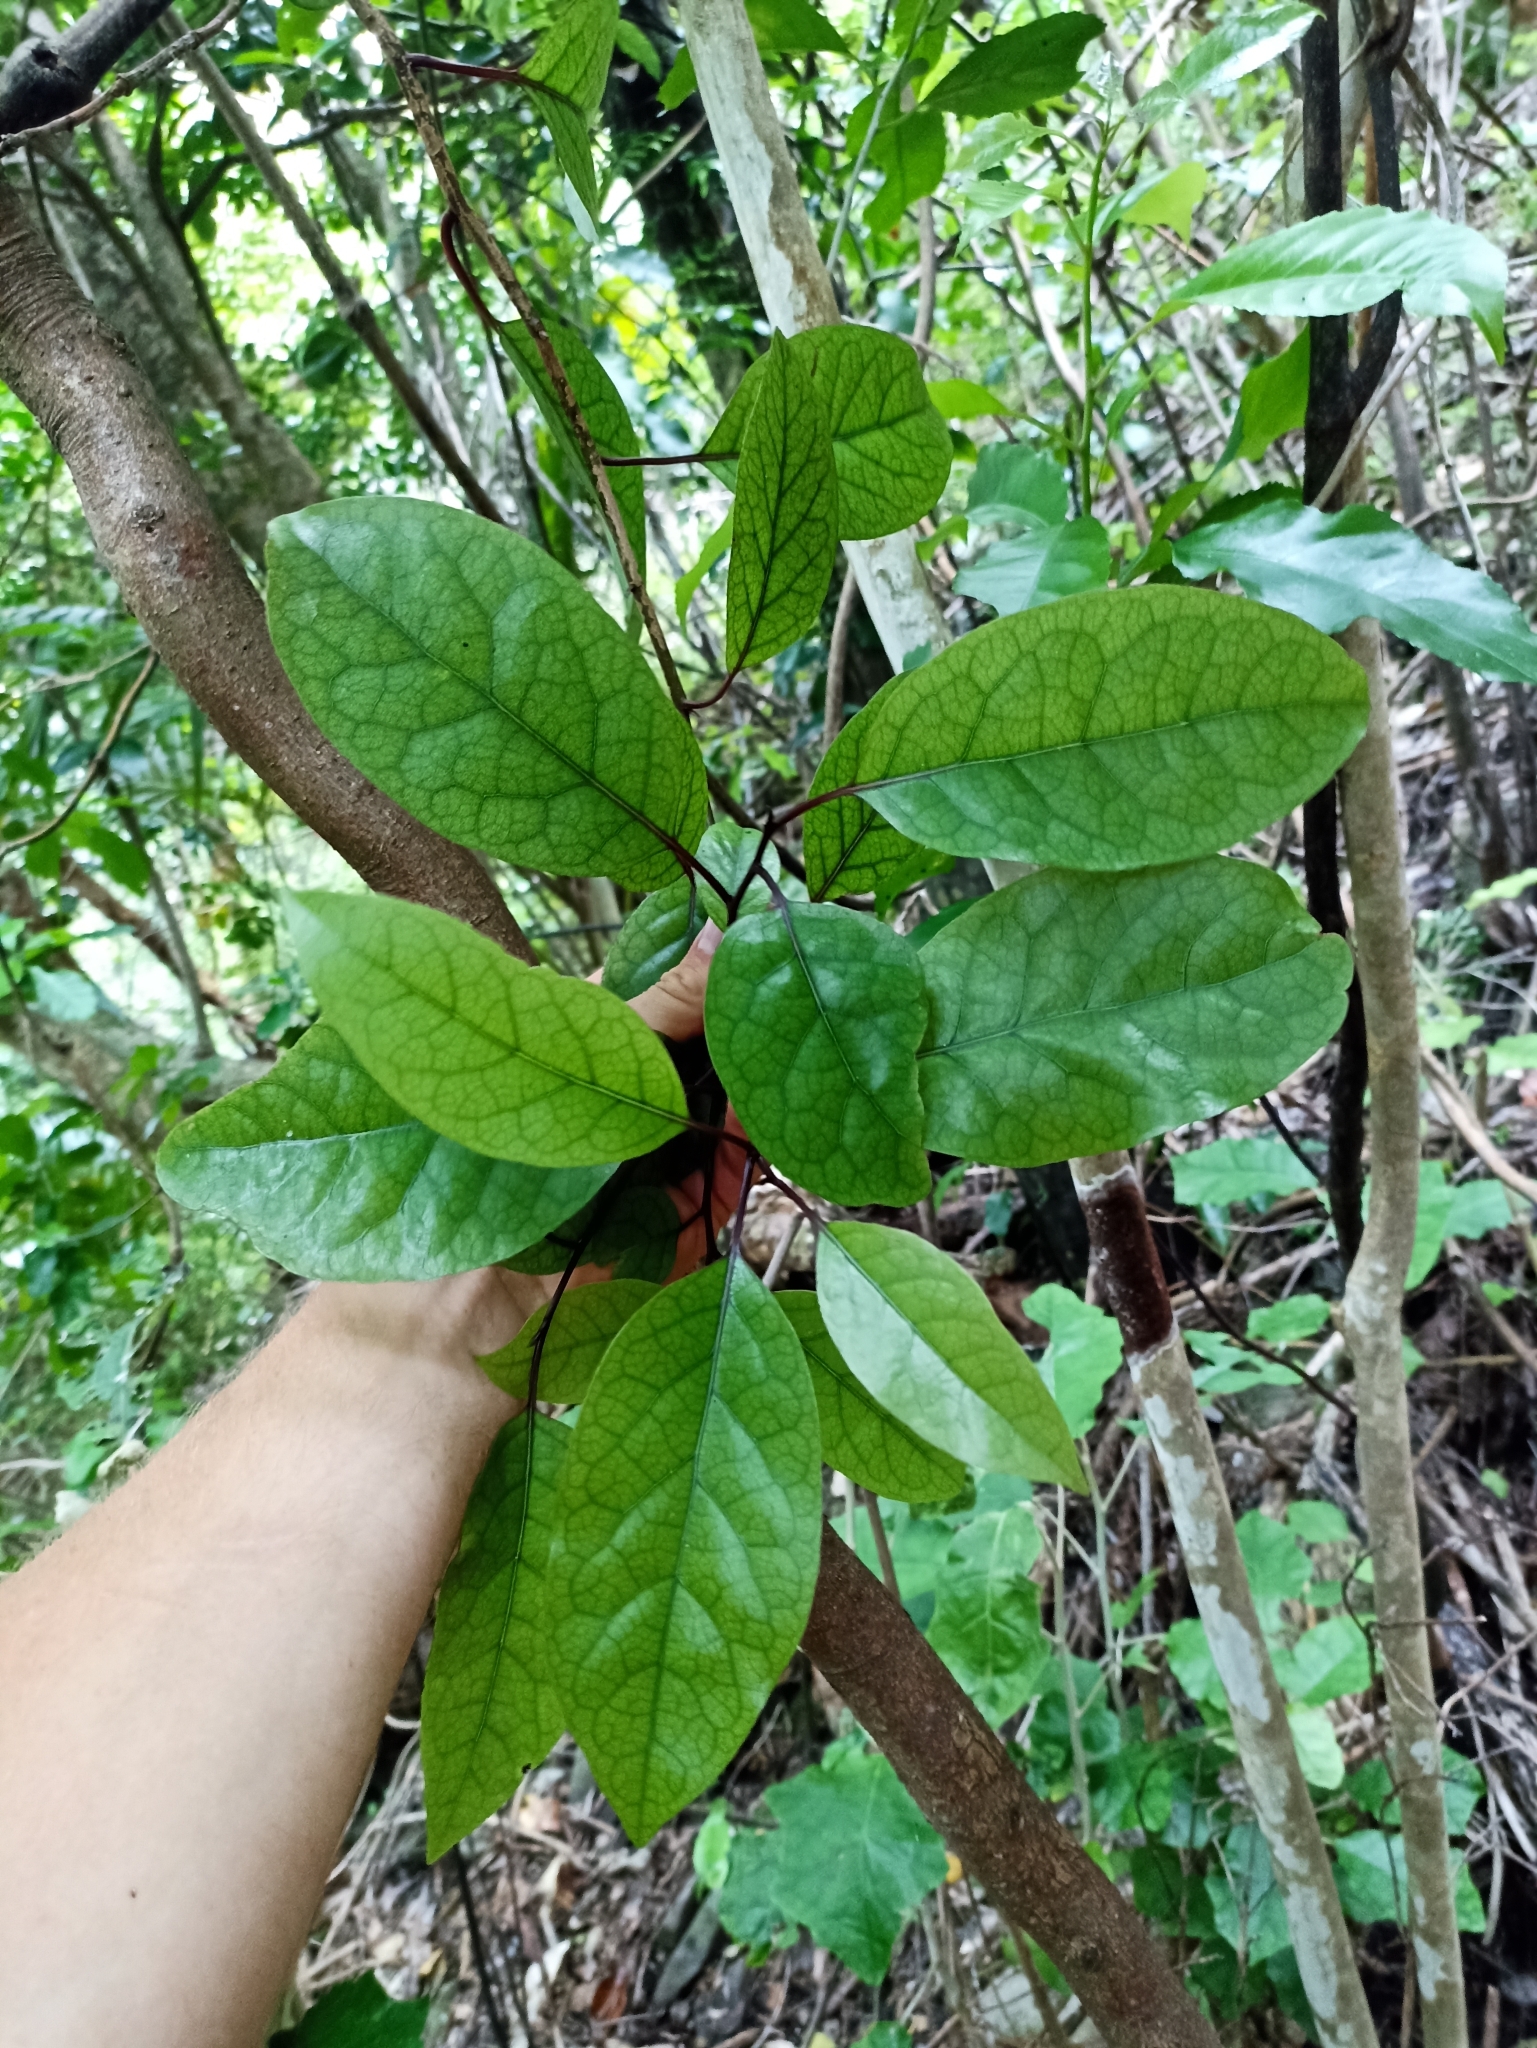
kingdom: Plantae
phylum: Tracheophyta
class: Magnoliopsida
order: Laurales
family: Lauraceae
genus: Litsea
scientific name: Litsea calicaris
